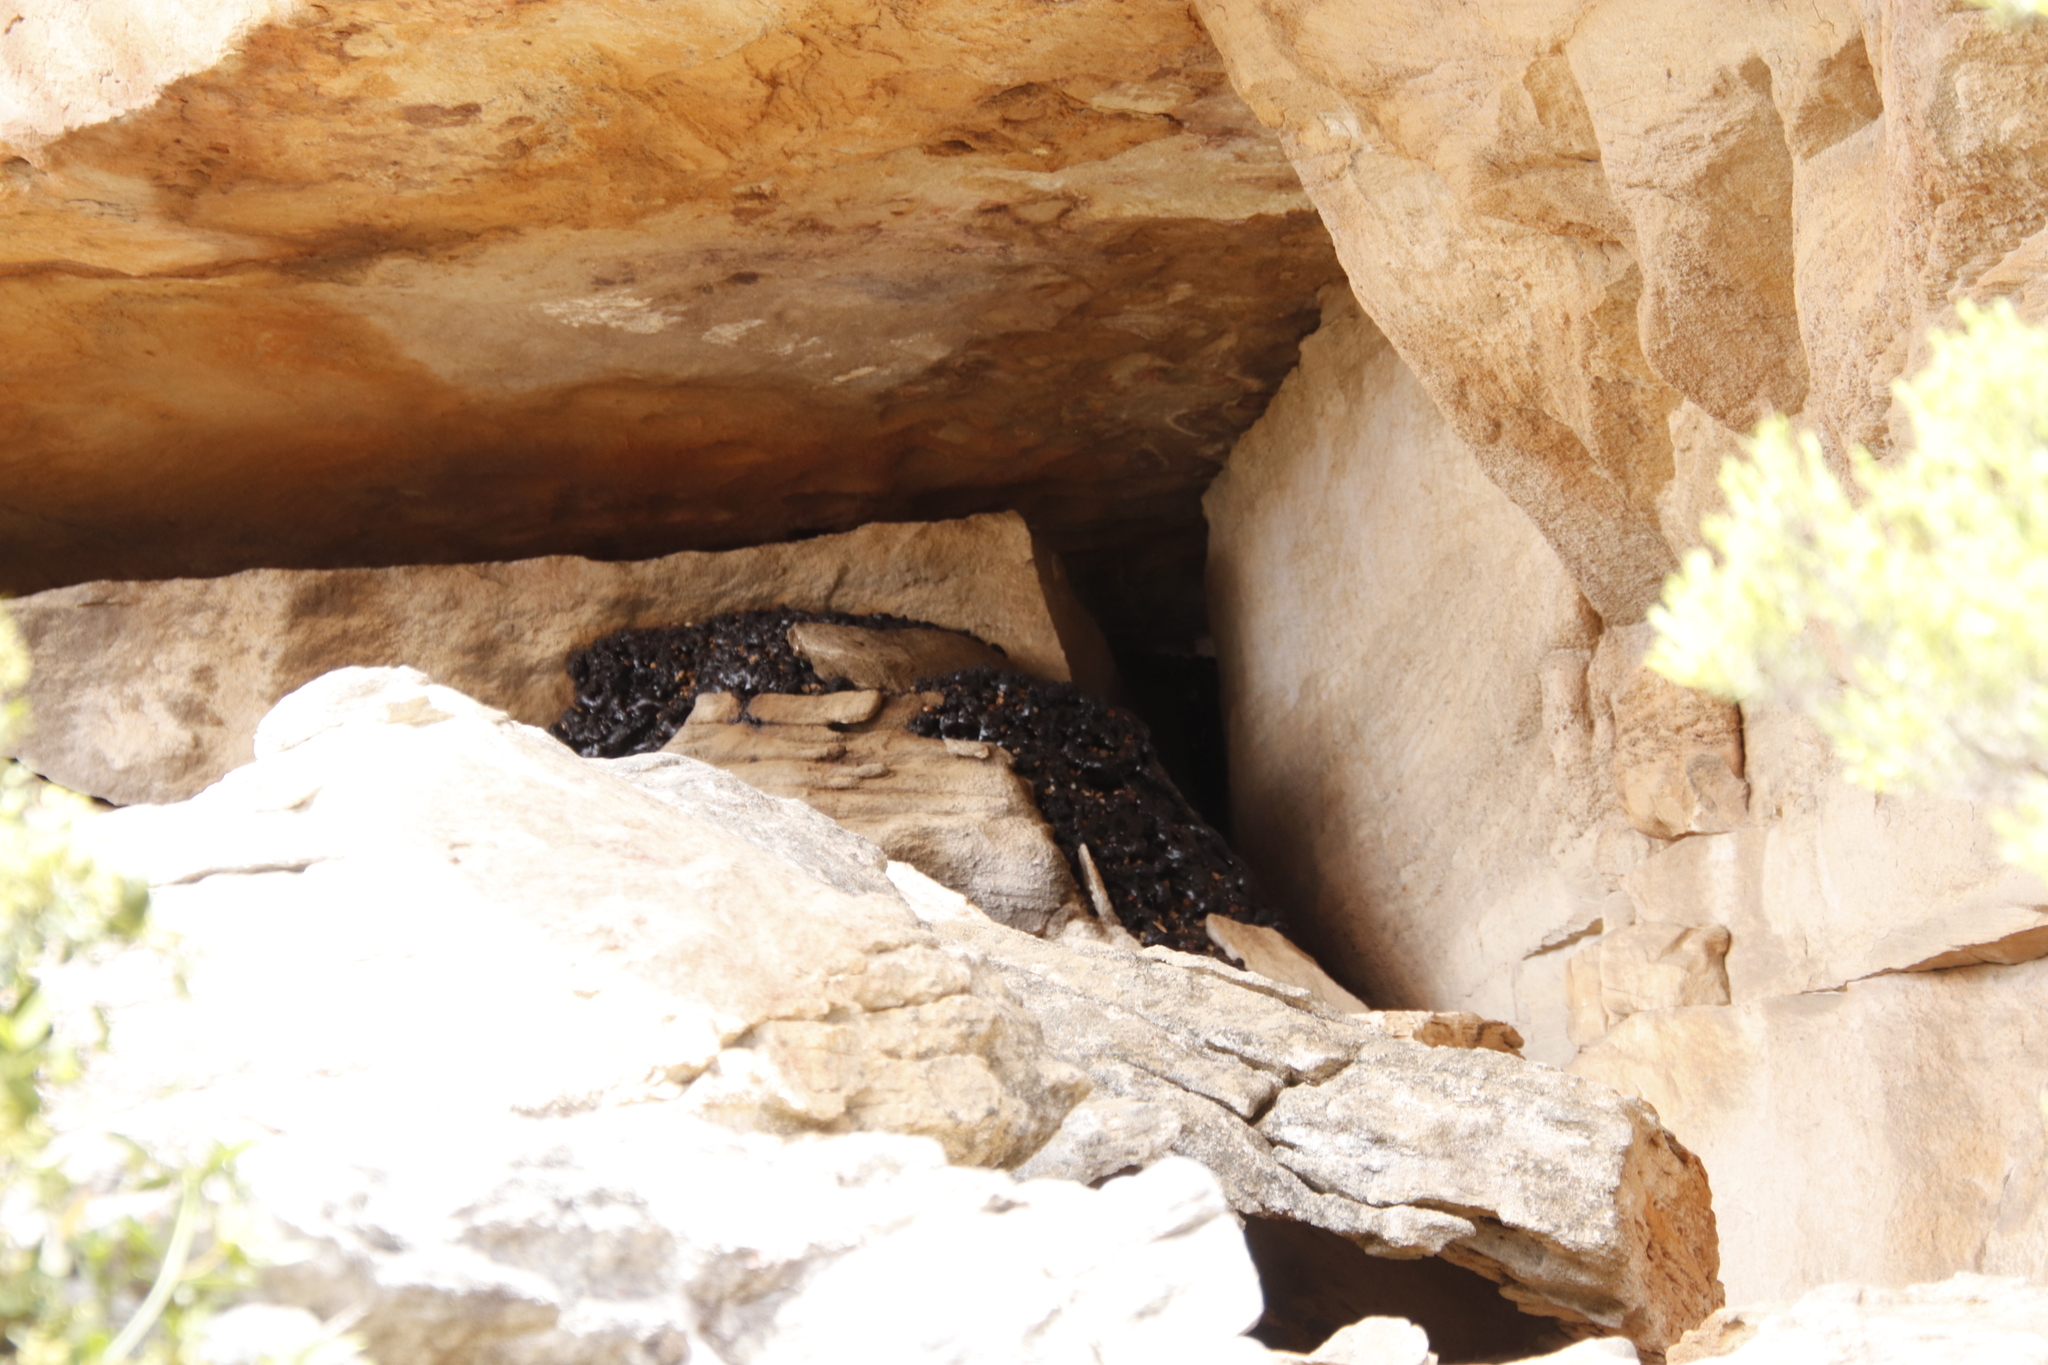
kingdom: Animalia
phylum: Chordata
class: Mammalia
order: Hyracoidea
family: Procaviidae
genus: Procavia
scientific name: Procavia capensis
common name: Rock hyrax
